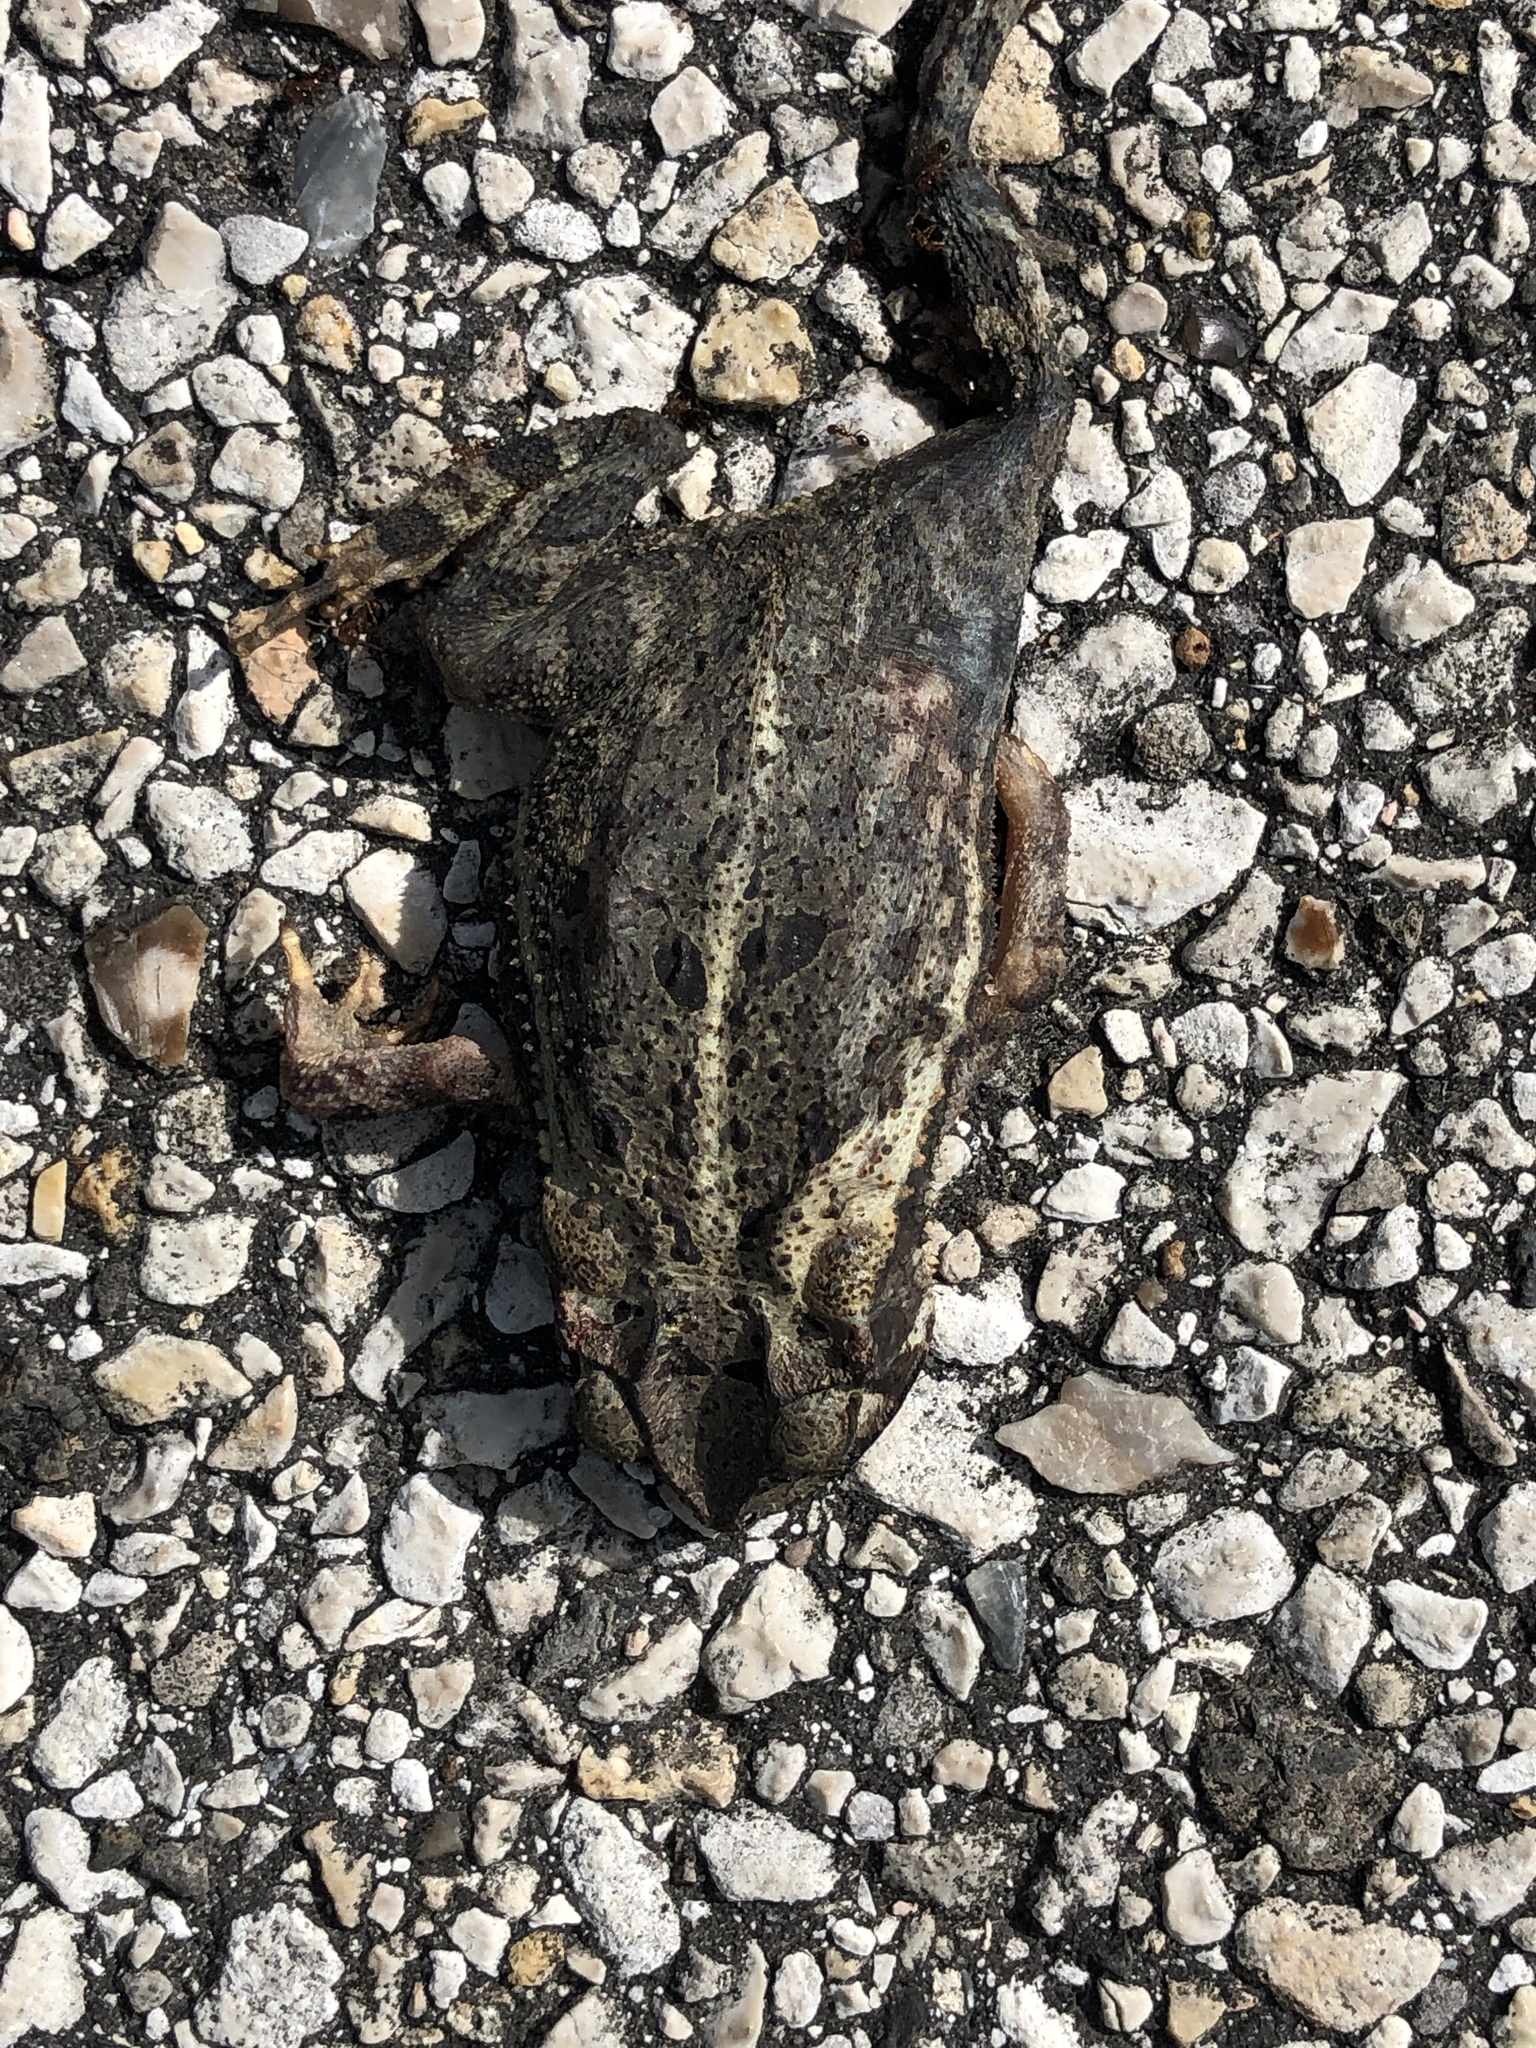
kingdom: Animalia
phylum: Chordata
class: Amphibia
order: Anura
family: Bufonidae
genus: Incilius
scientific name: Incilius nebulifer
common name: Gulf coast toad
